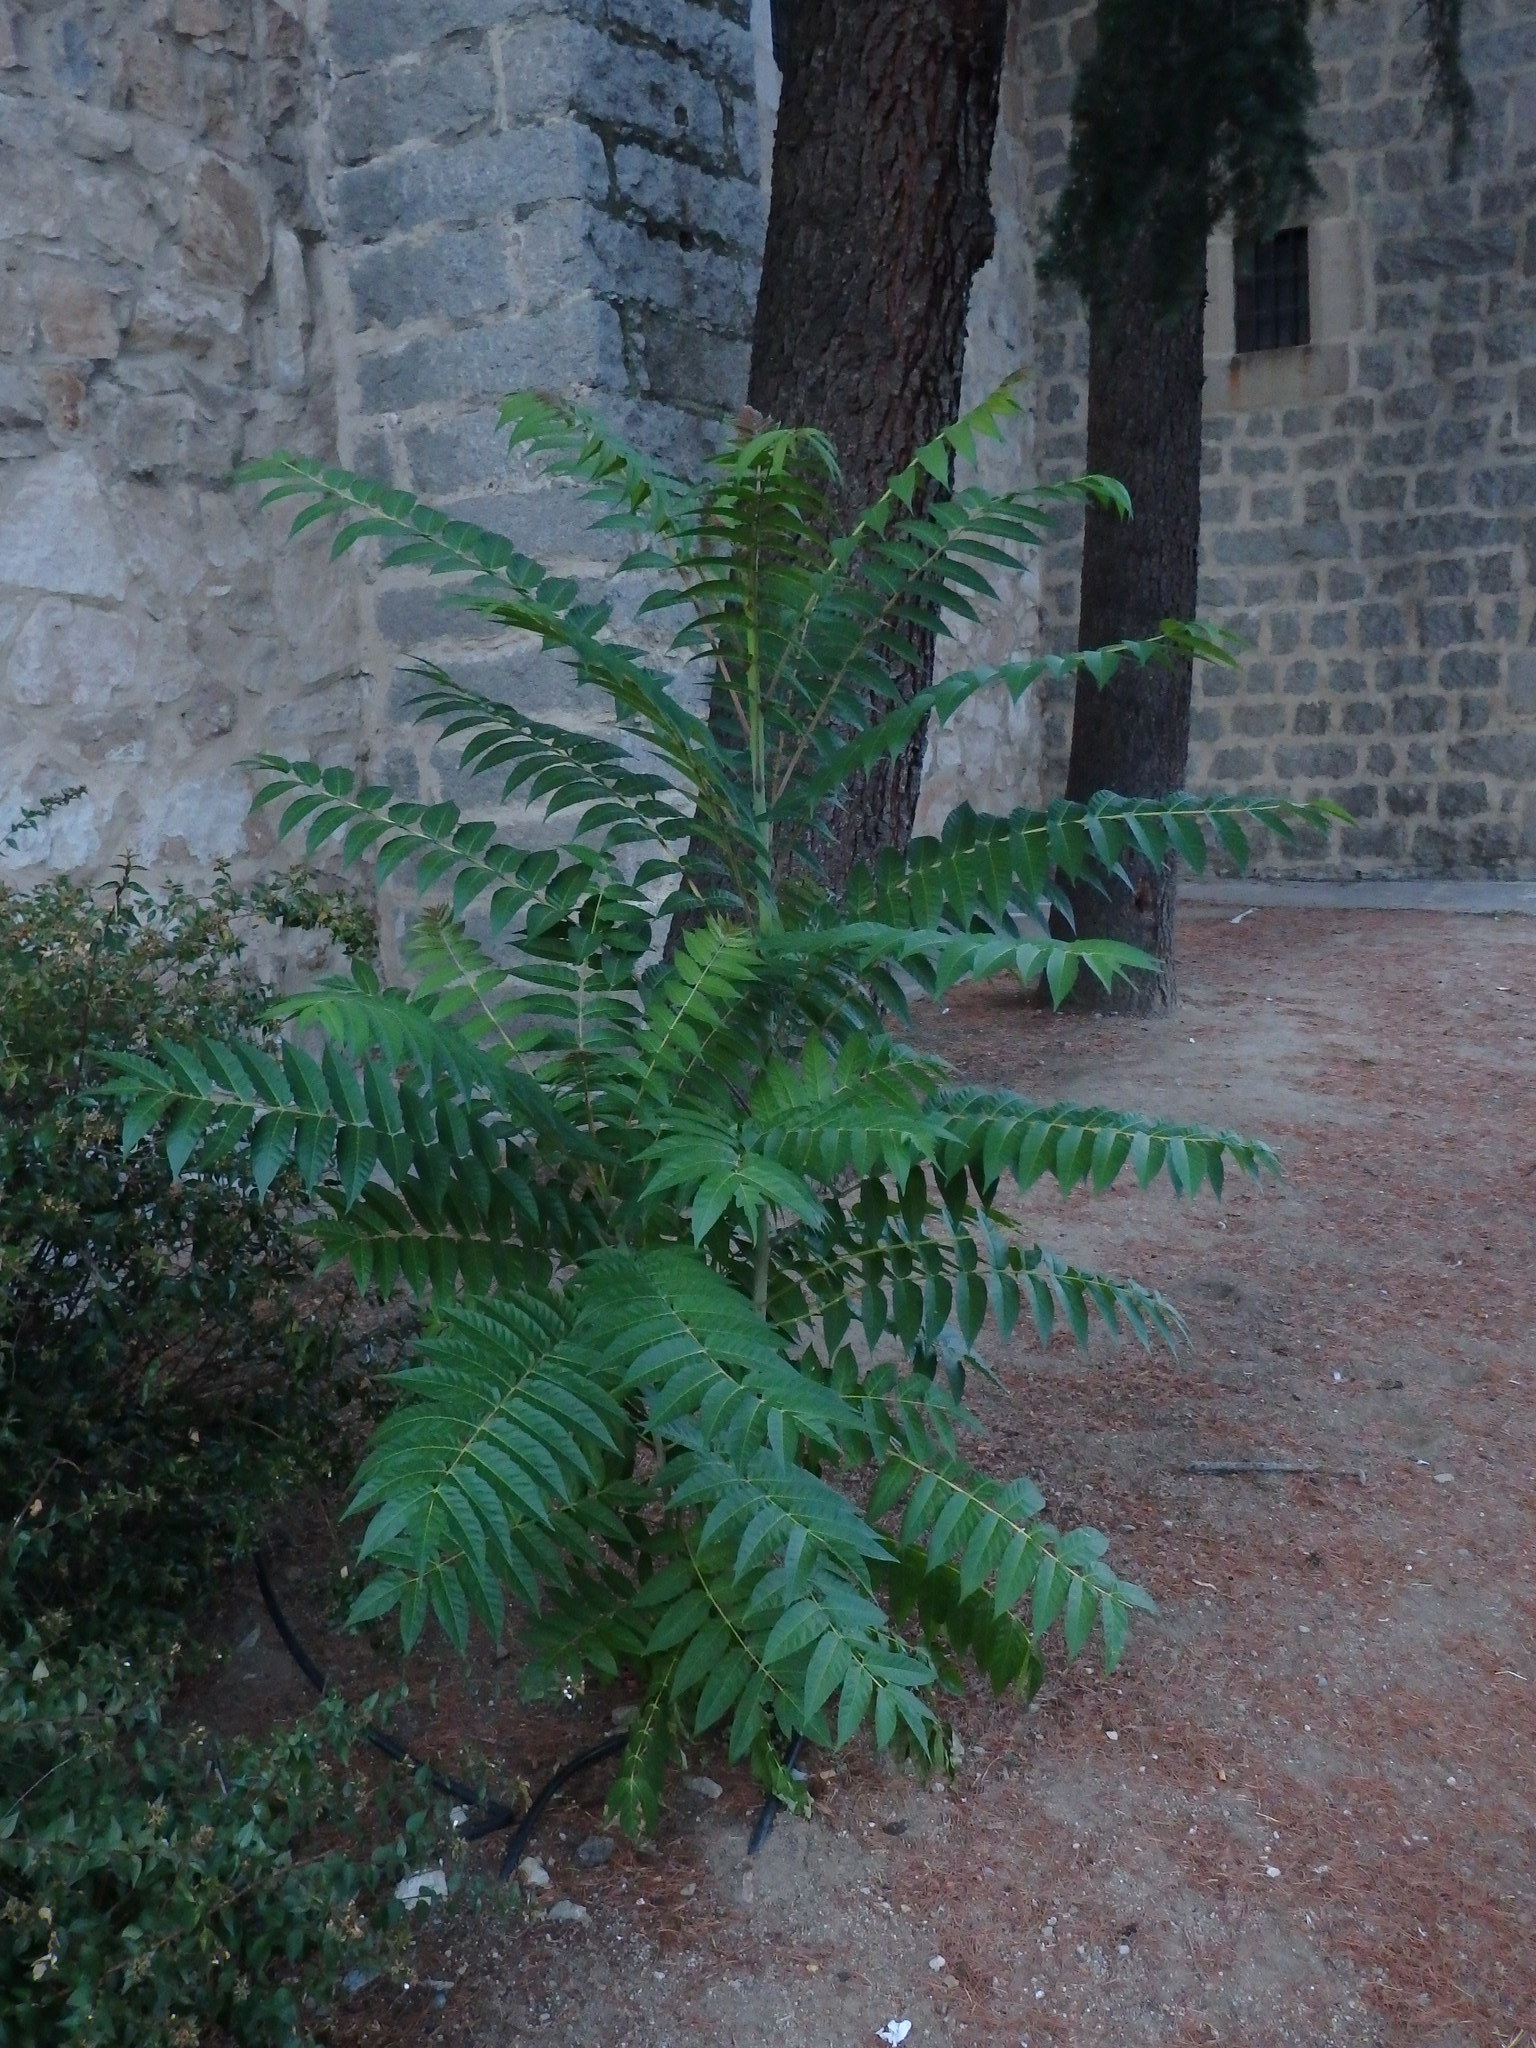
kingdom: Plantae
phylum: Tracheophyta
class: Magnoliopsida
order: Sapindales
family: Simaroubaceae
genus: Ailanthus
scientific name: Ailanthus altissima
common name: Tree-of-heaven
